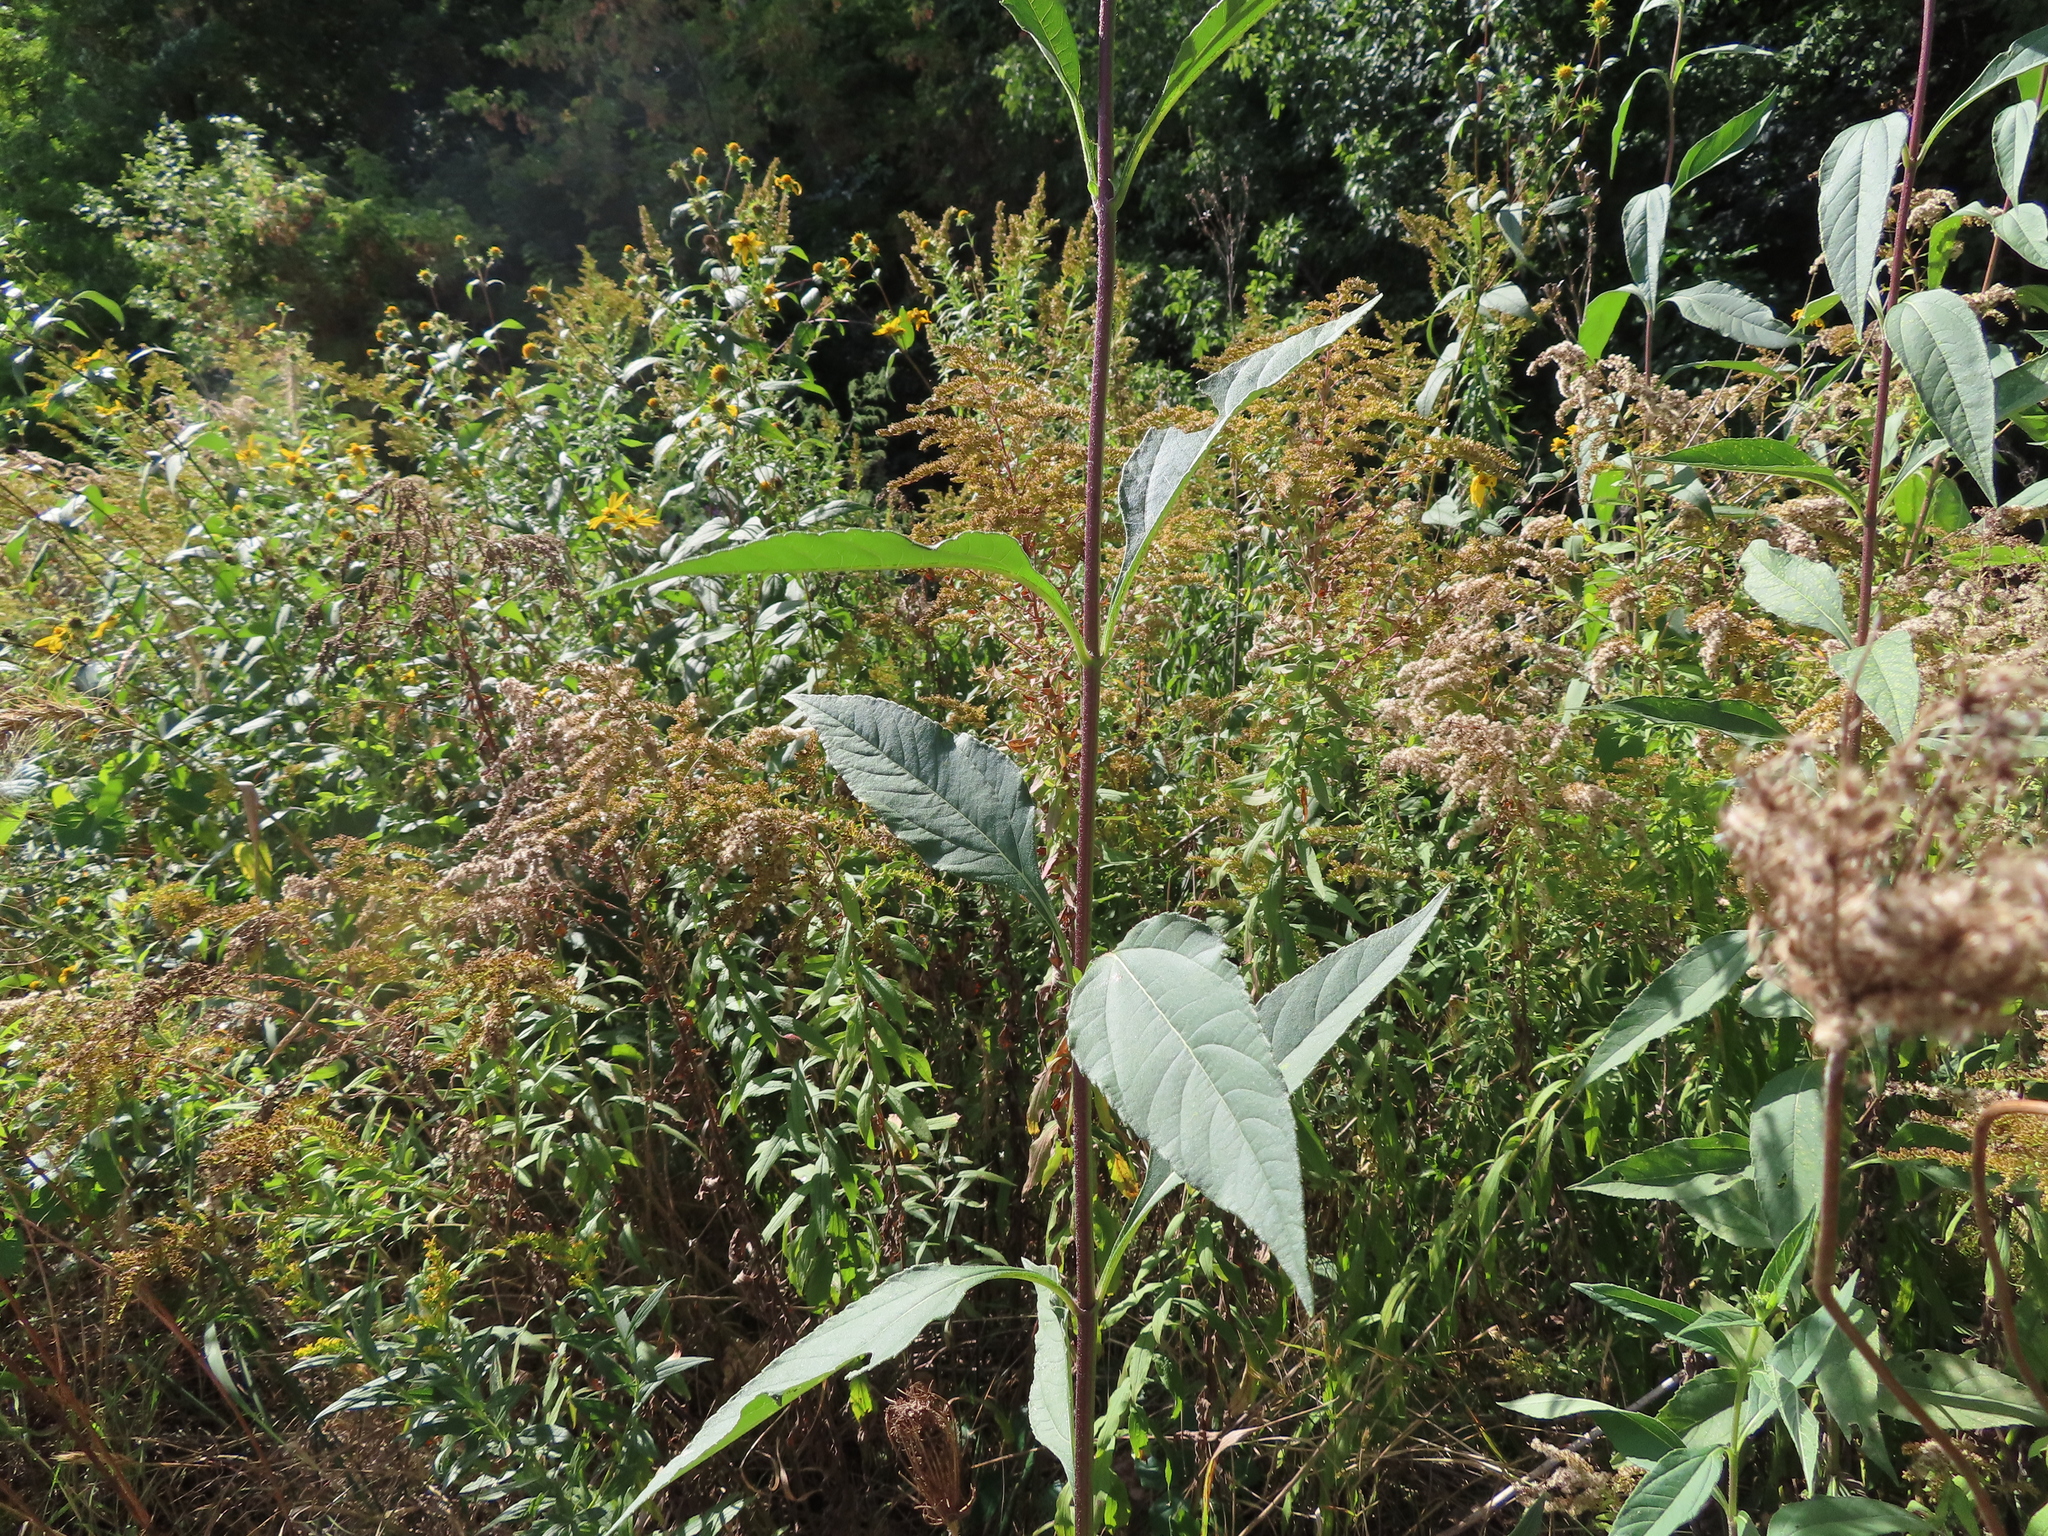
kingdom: Plantae
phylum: Tracheophyta
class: Magnoliopsida
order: Asterales
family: Asteraceae
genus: Helianthus
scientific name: Helianthus tuberosus
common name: Jerusalem artichoke
